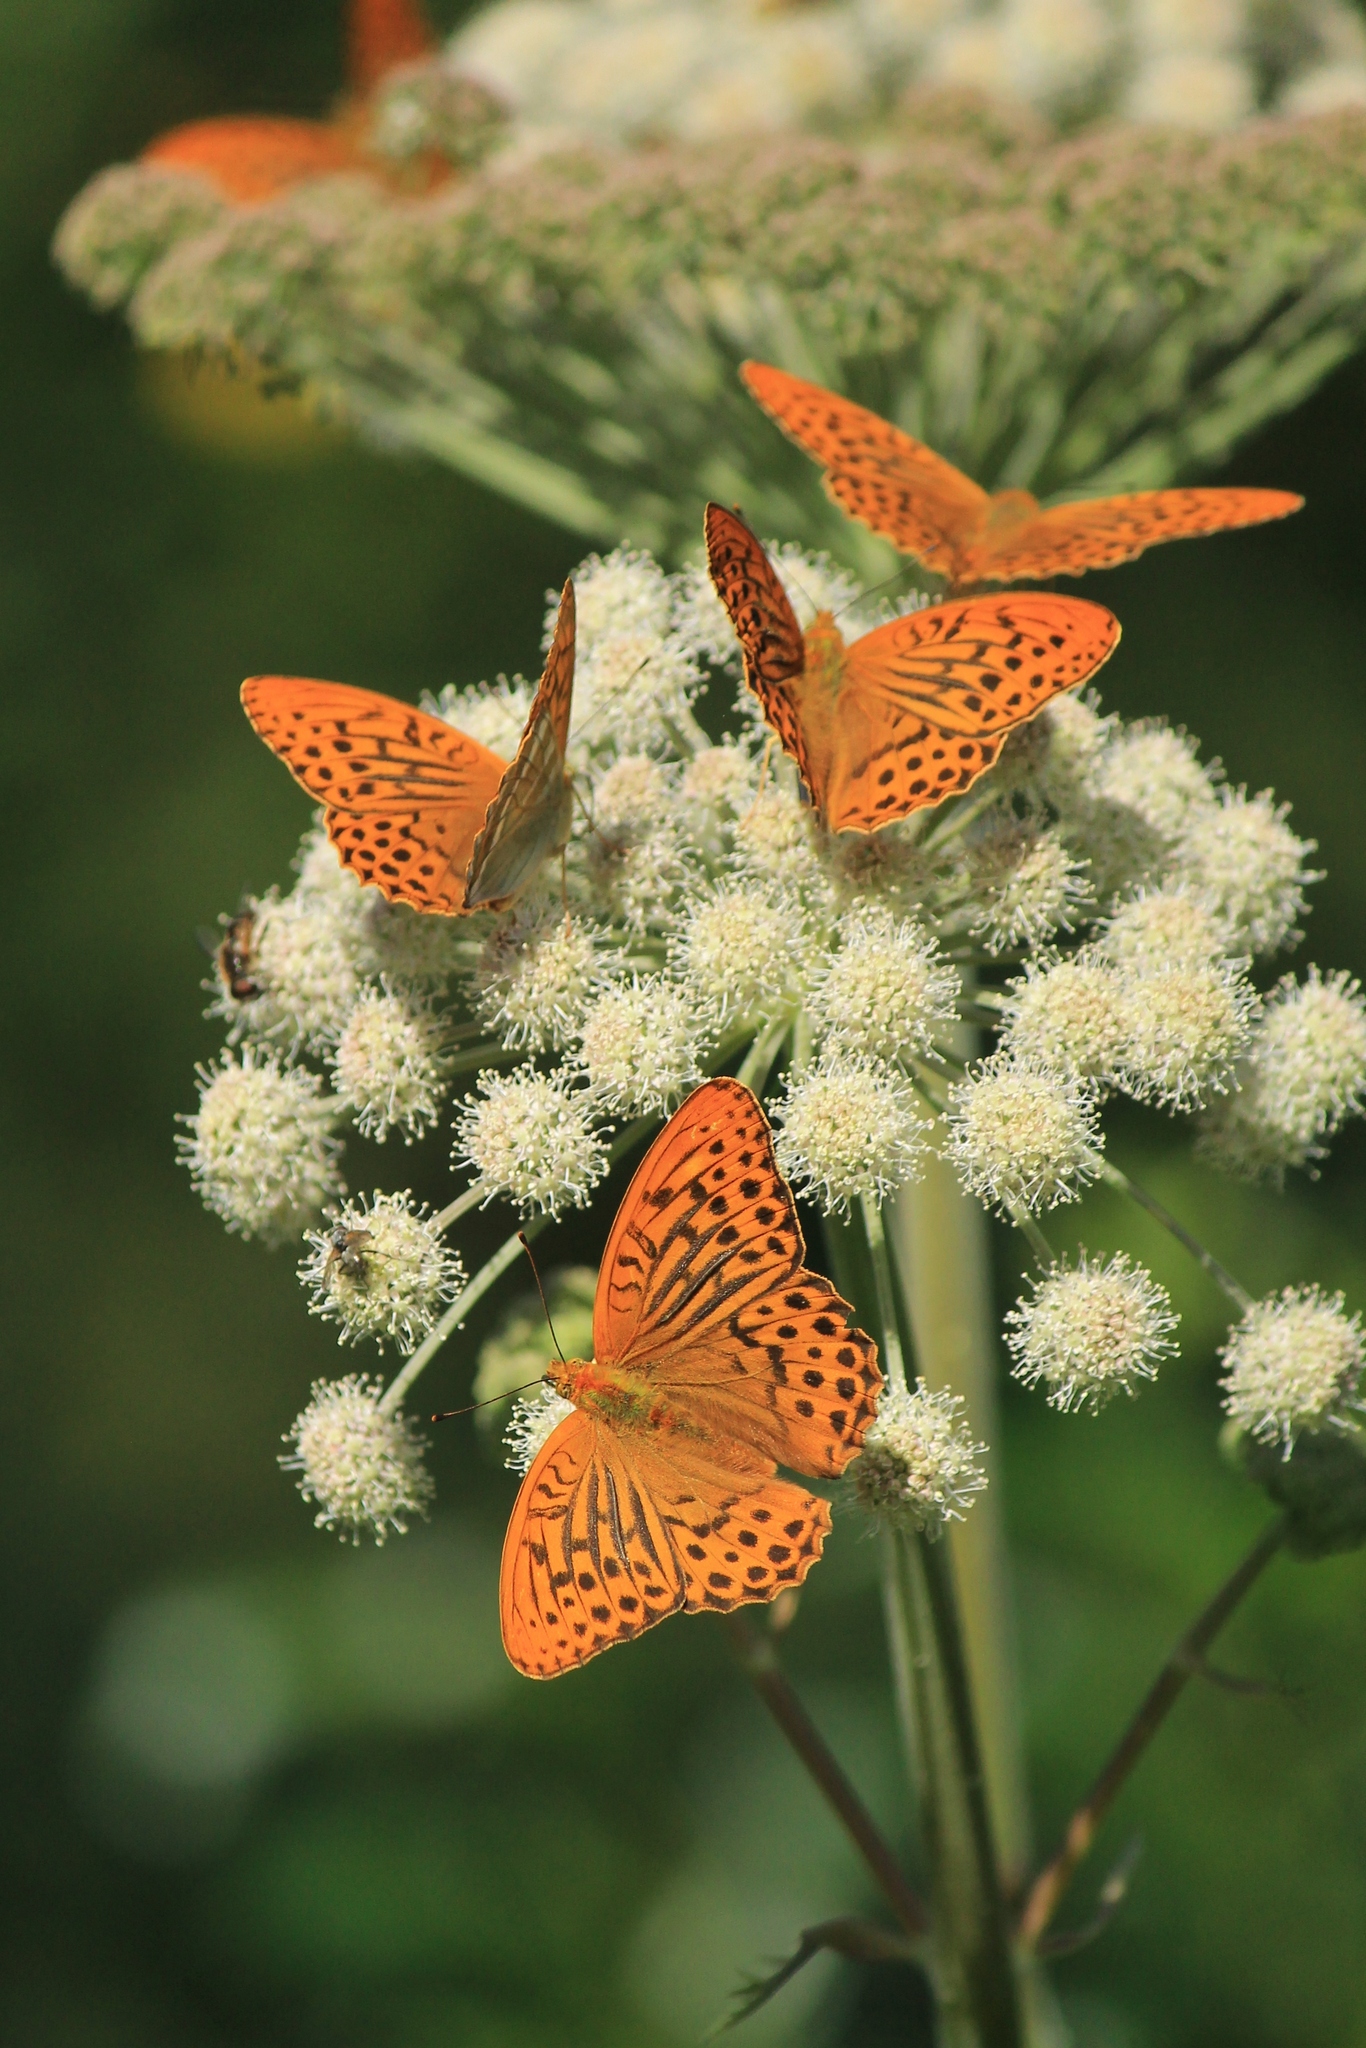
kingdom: Animalia
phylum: Arthropoda
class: Insecta
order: Lepidoptera
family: Nymphalidae
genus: Argynnis
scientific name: Argynnis paphia
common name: Silver-washed fritillary
